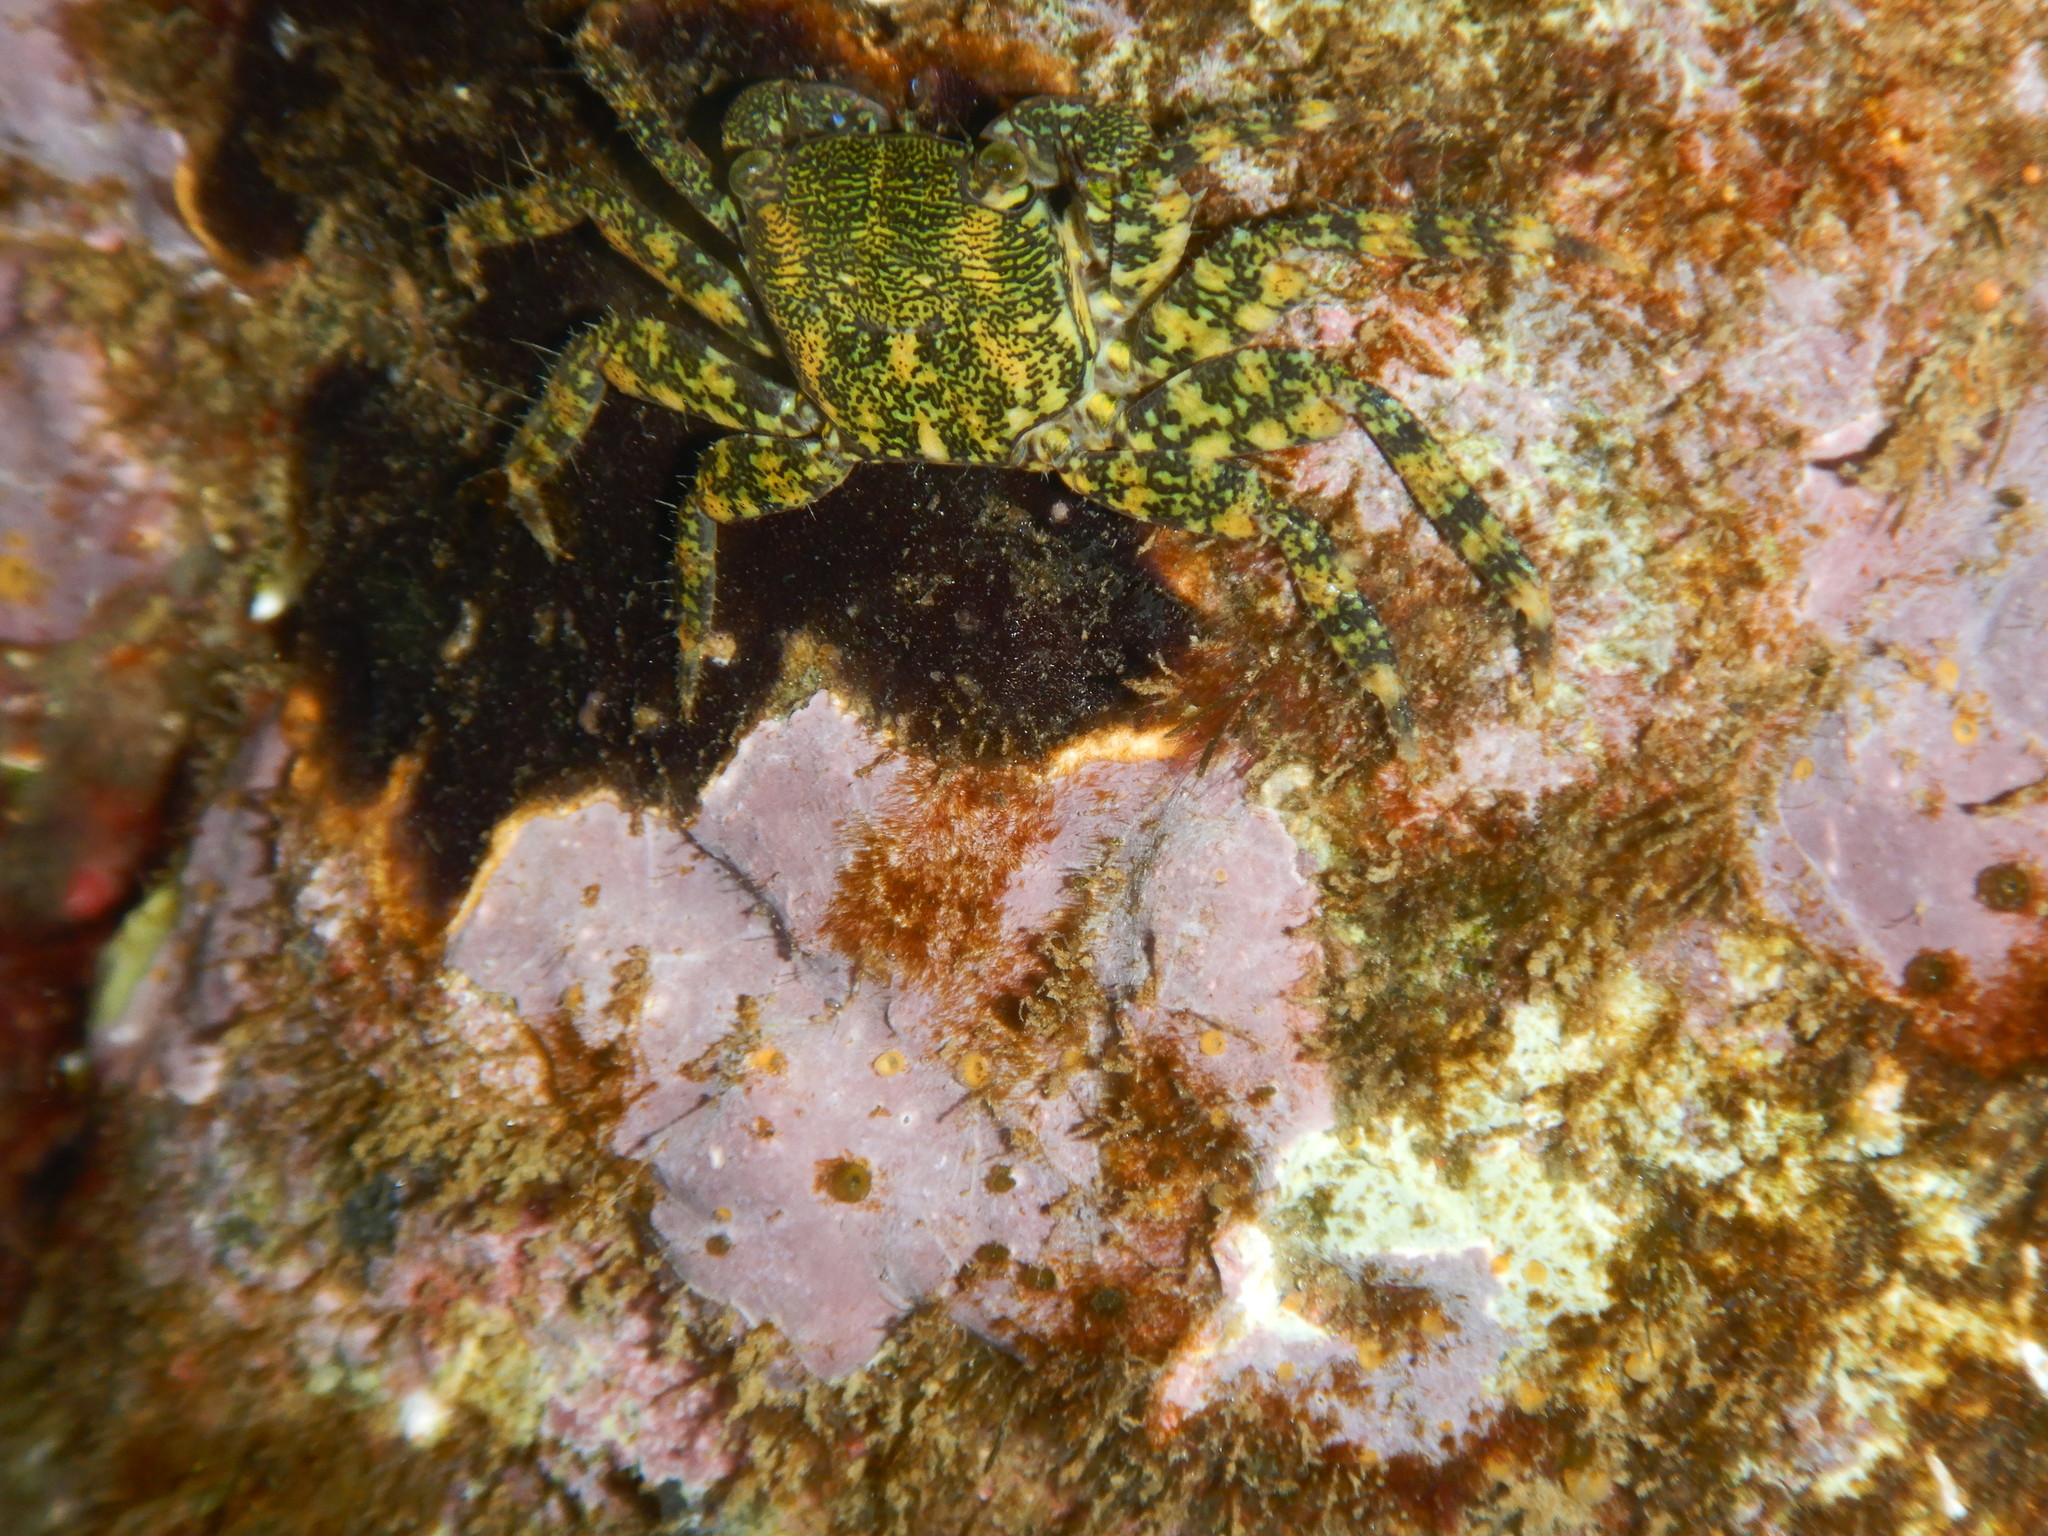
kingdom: Animalia
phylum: Arthropoda
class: Malacostraca
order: Decapoda
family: Grapsidae
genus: Pachygrapsus
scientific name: Pachygrapsus marmoratus
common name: Marbled rock crab
